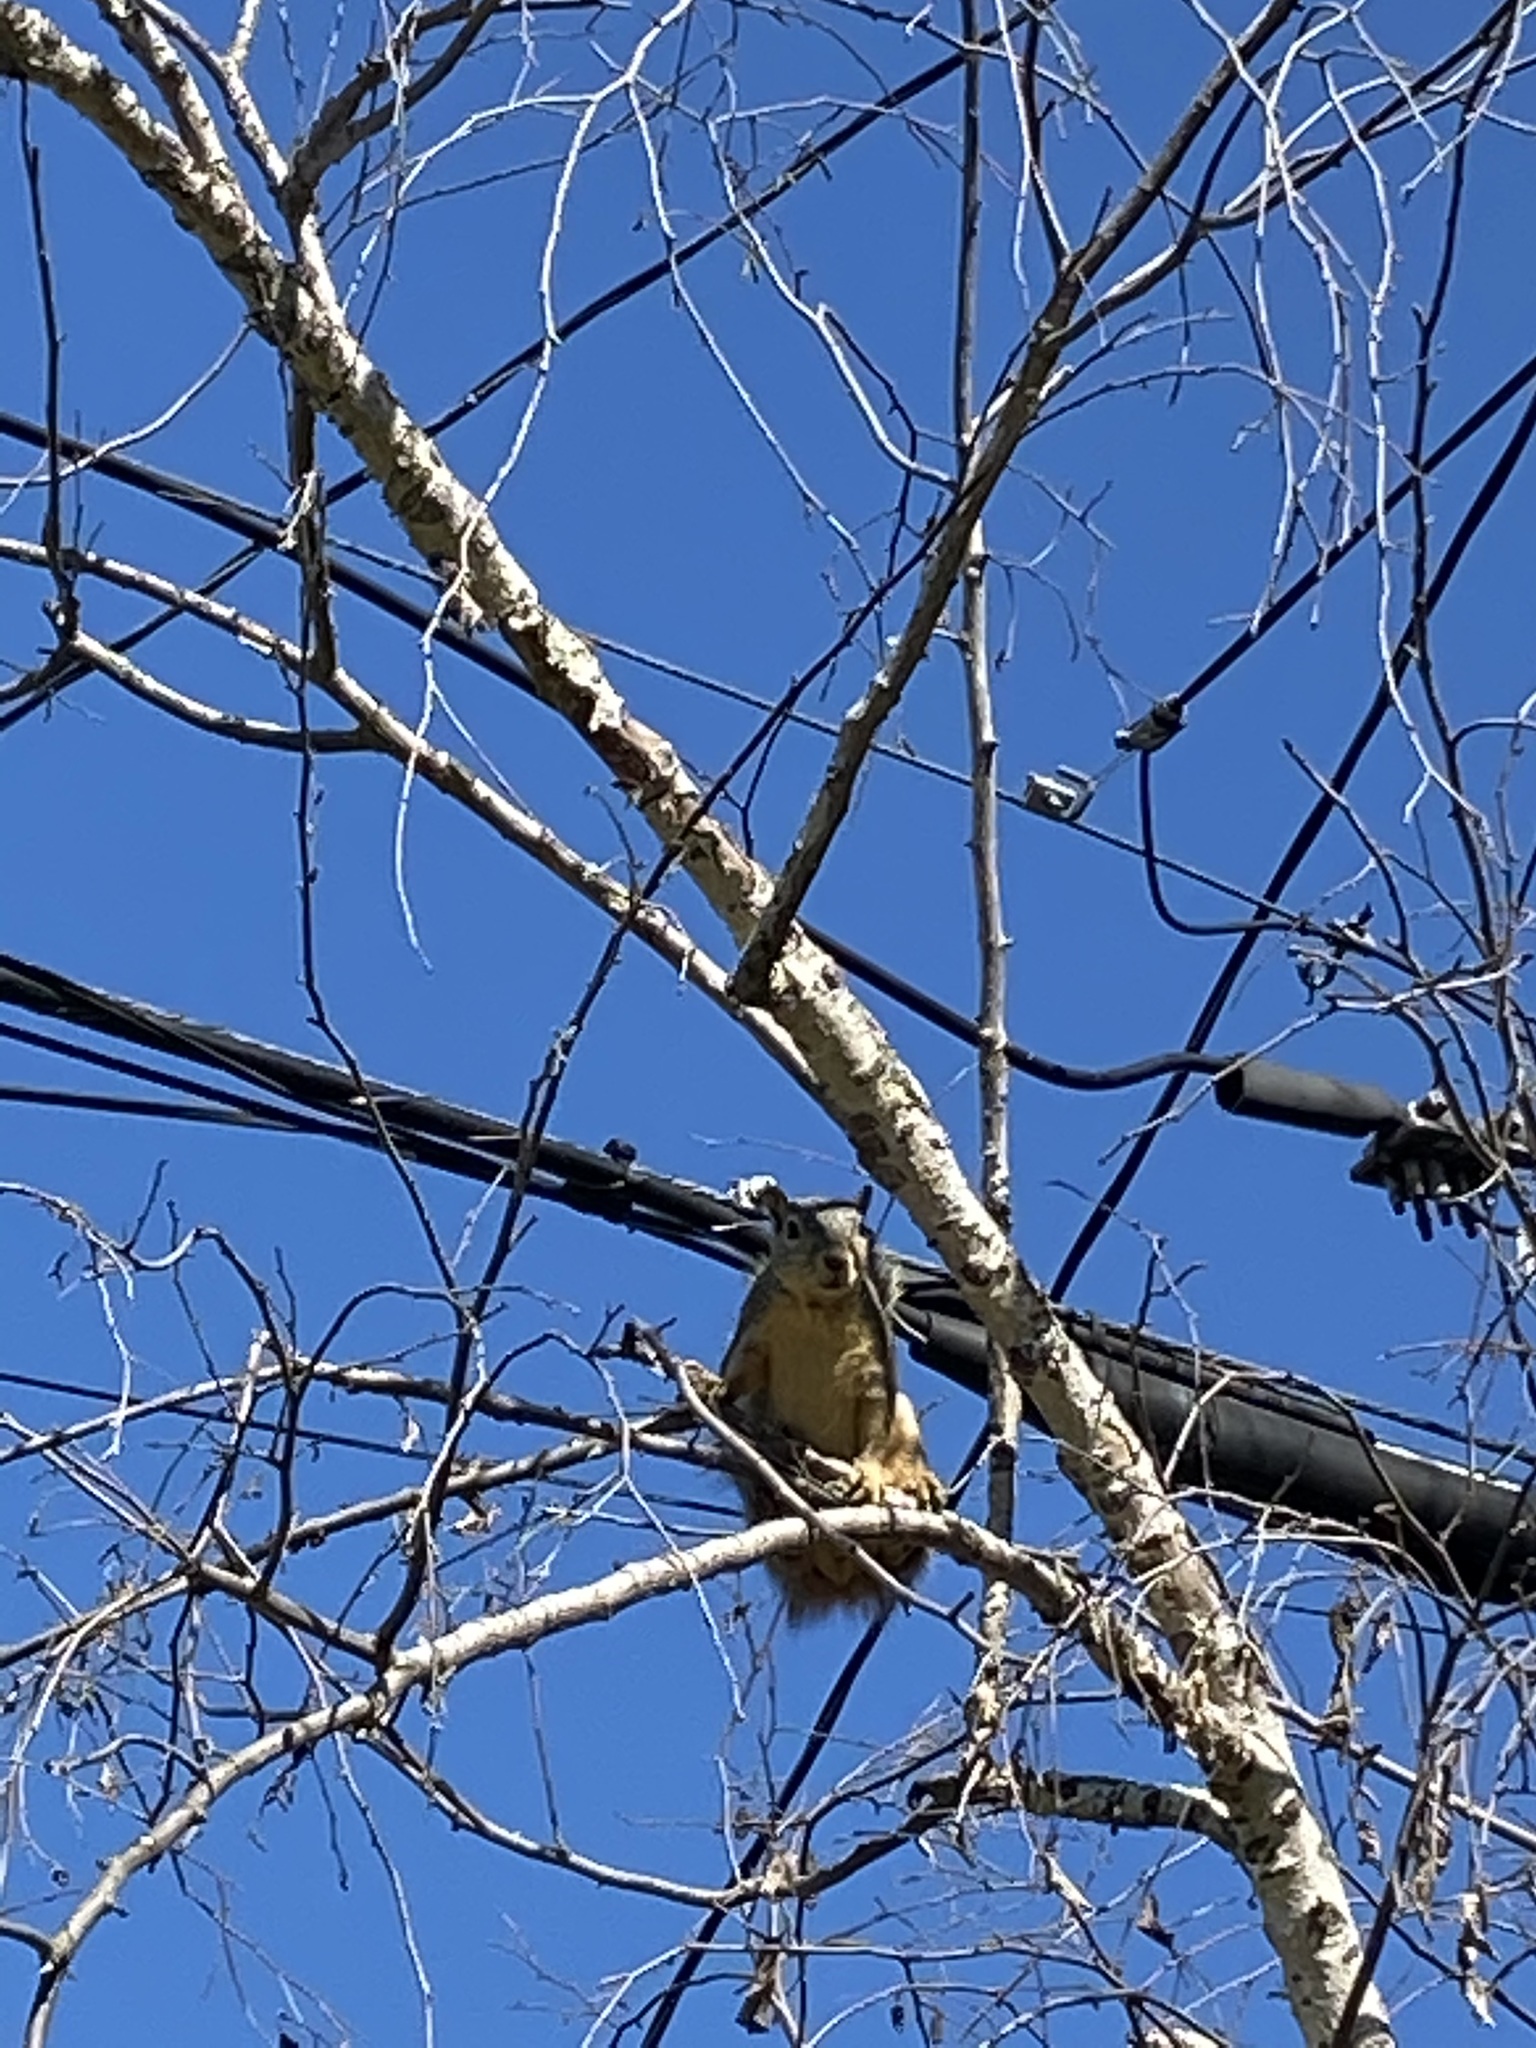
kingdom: Animalia
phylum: Chordata
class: Mammalia
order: Rodentia
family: Sciuridae
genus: Sciurus
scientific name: Sciurus niger
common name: Fox squirrel
